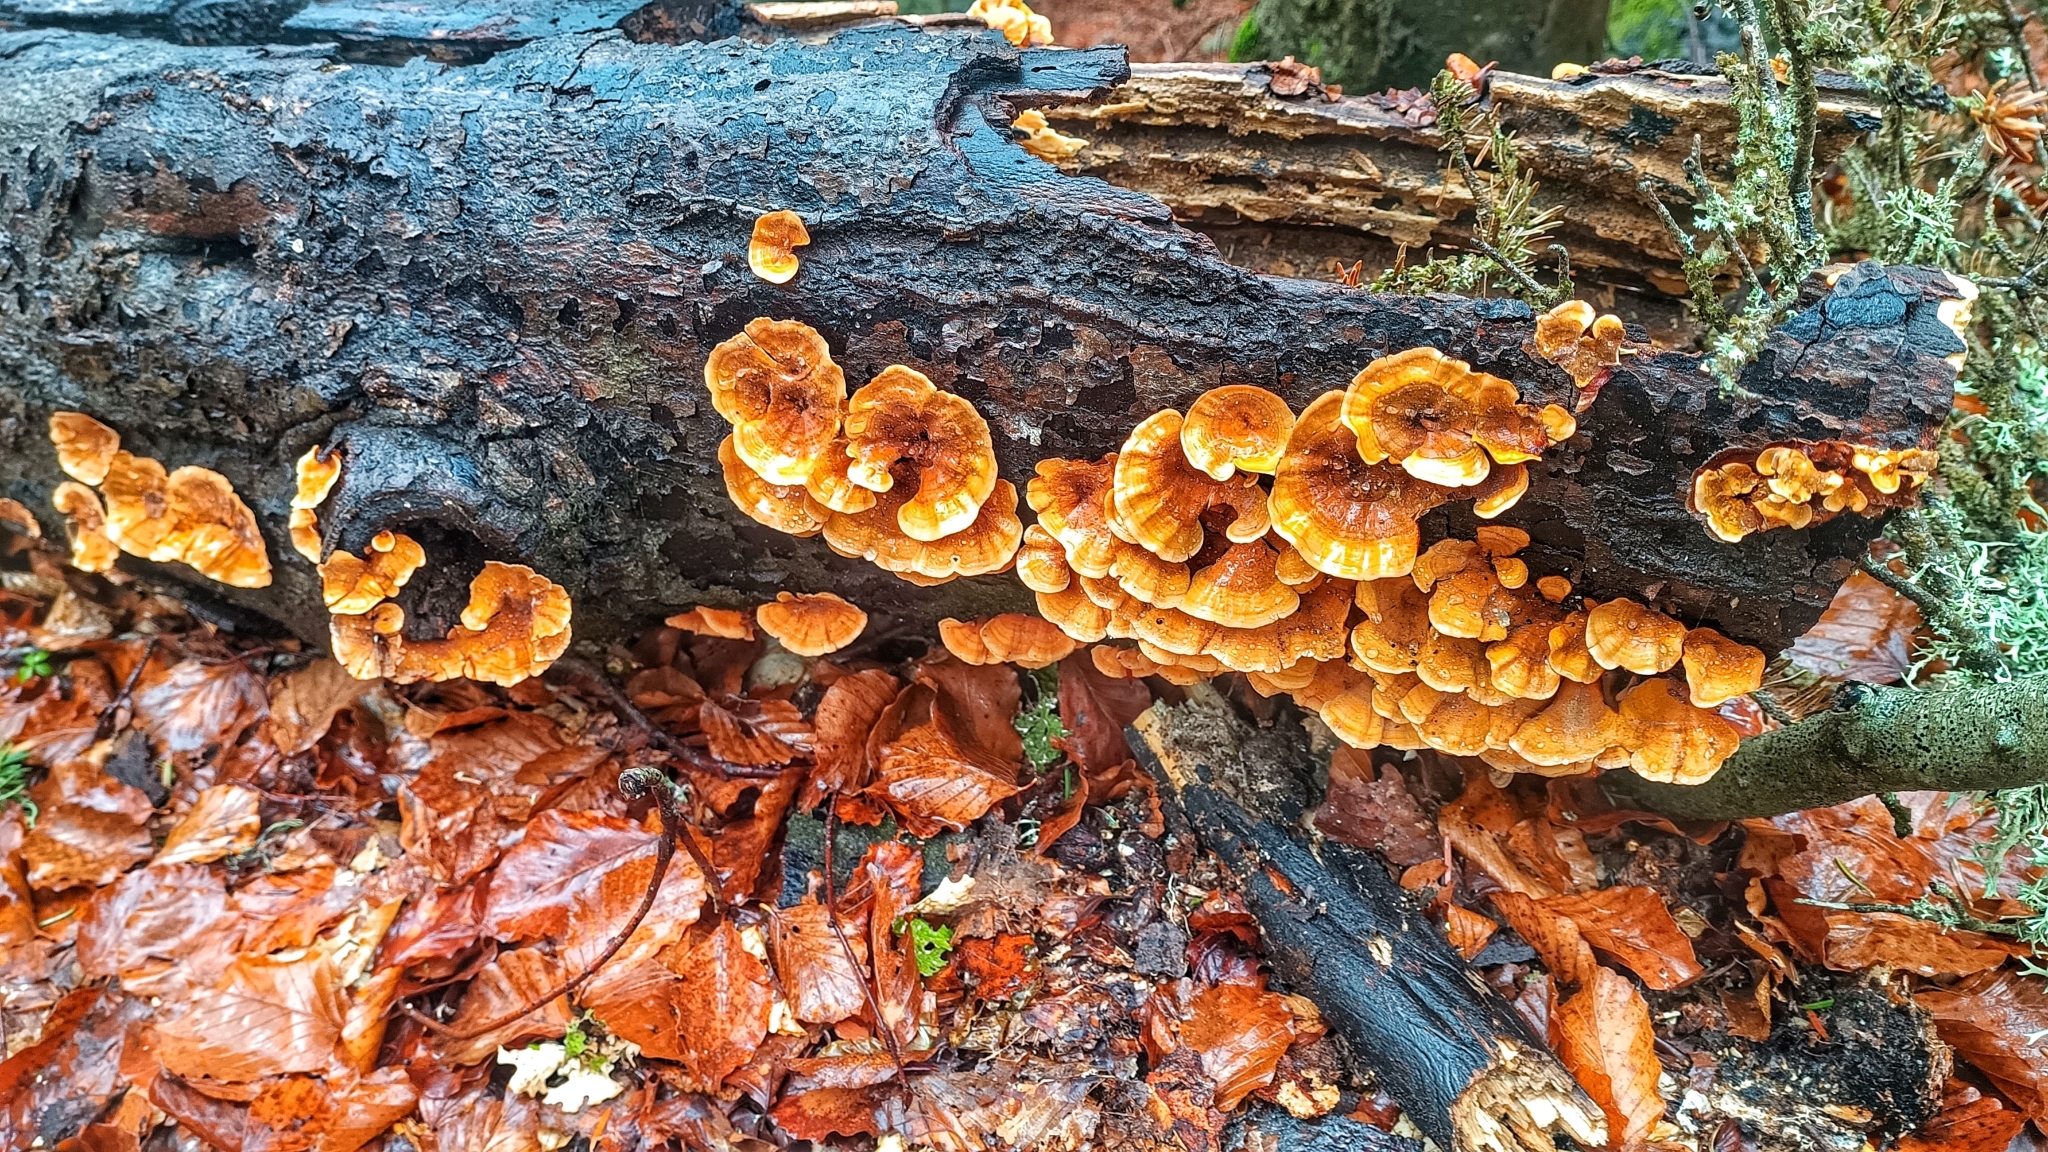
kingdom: Fungi
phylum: Basidiomycota
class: Agaricomycetes
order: Russulales
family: Stereaceae
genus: Stereum
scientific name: Stereum hirsutum
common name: Hairy curtain crust
